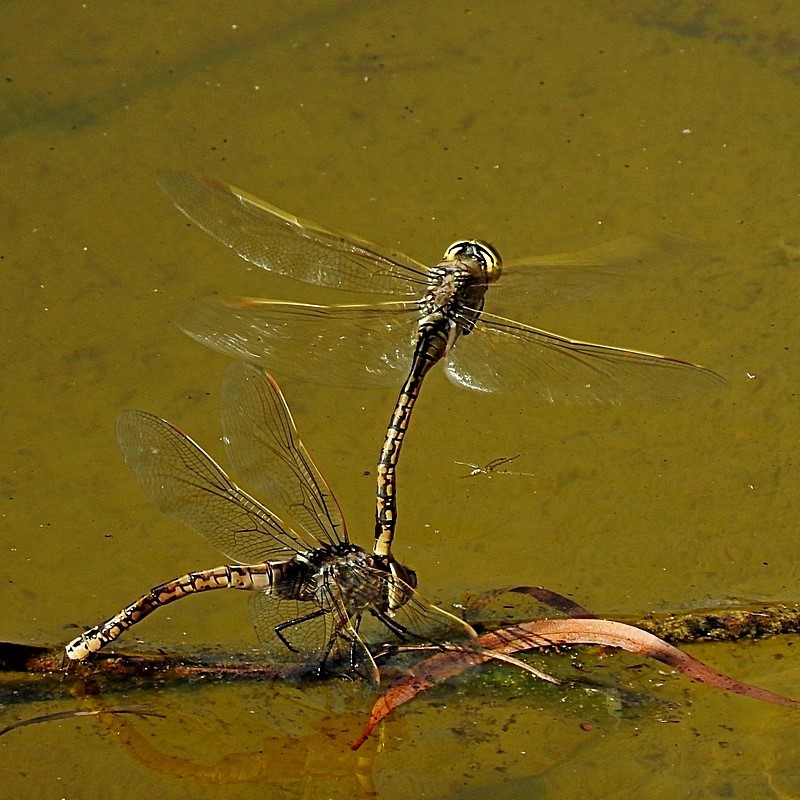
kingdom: Animalia
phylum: Arthropoda
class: Insecta
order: Odonata
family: Aeshnidae
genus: Anax
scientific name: Anax papuensis
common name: Australian emperor
